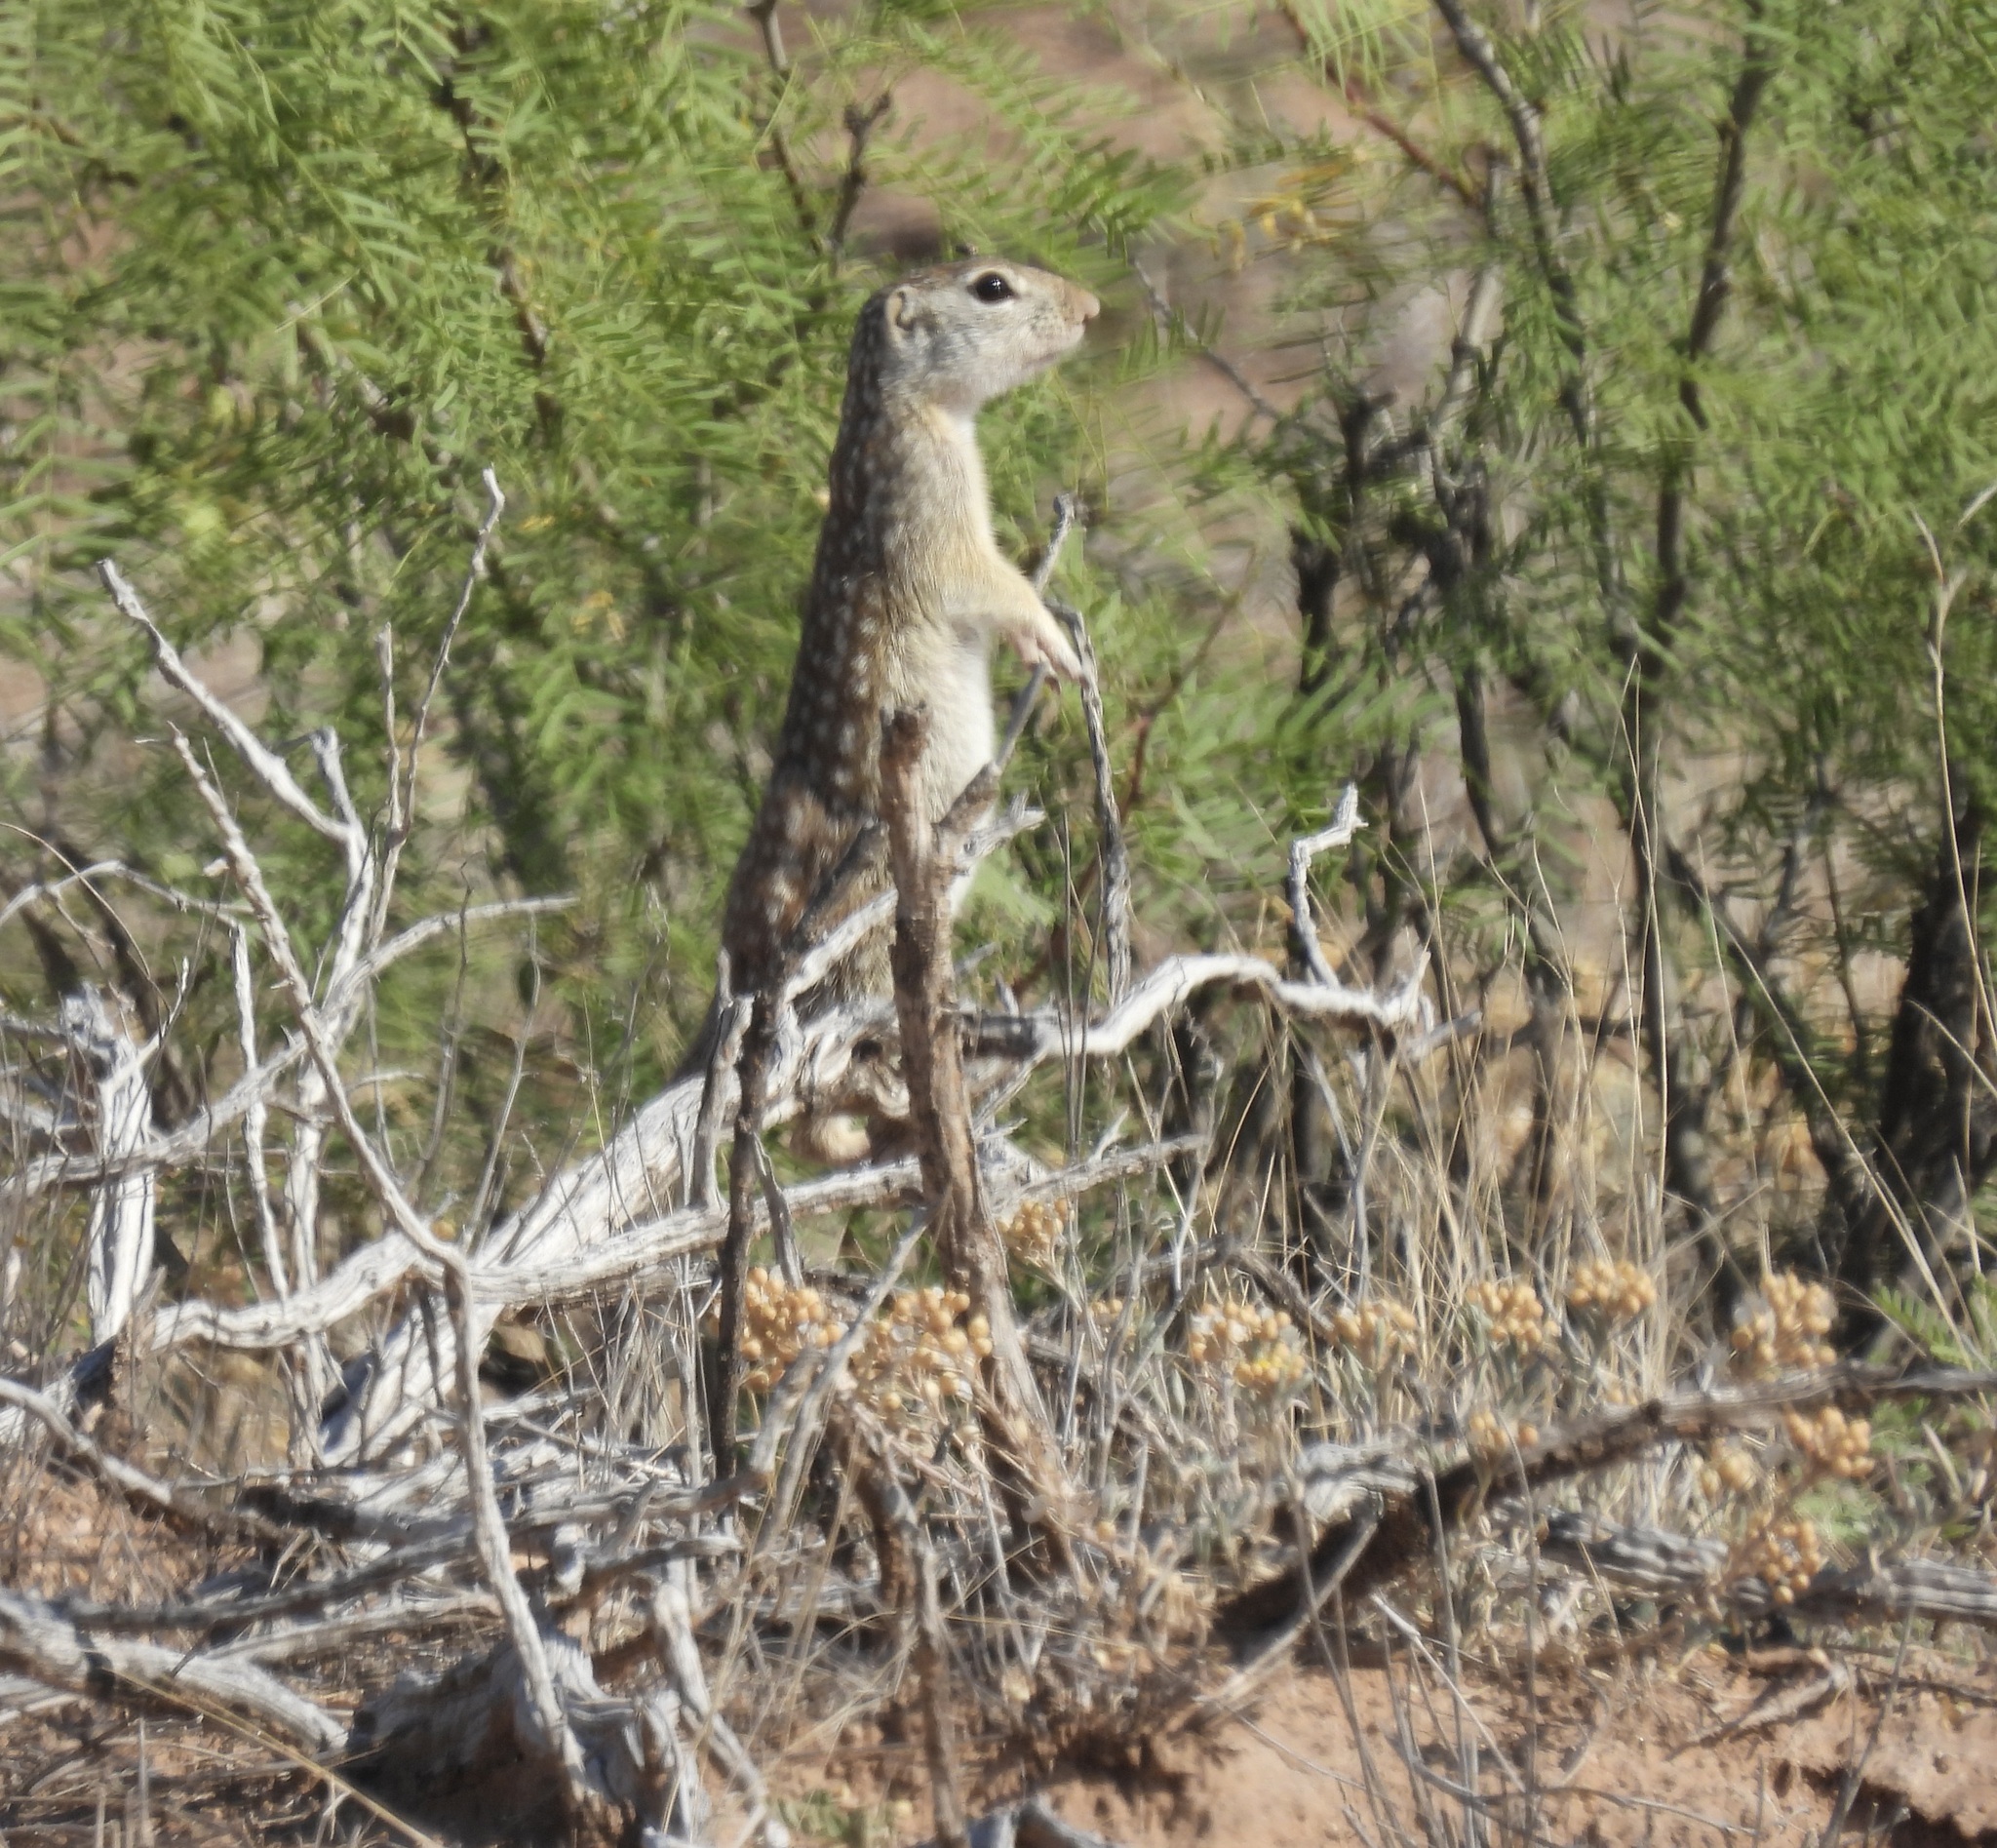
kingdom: Animalia
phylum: Chordata
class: Mammalia
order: Rodentia
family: Sciuridae
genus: Ictidomys
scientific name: Ictidomys parvidens
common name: Rio grande ground squirrel
